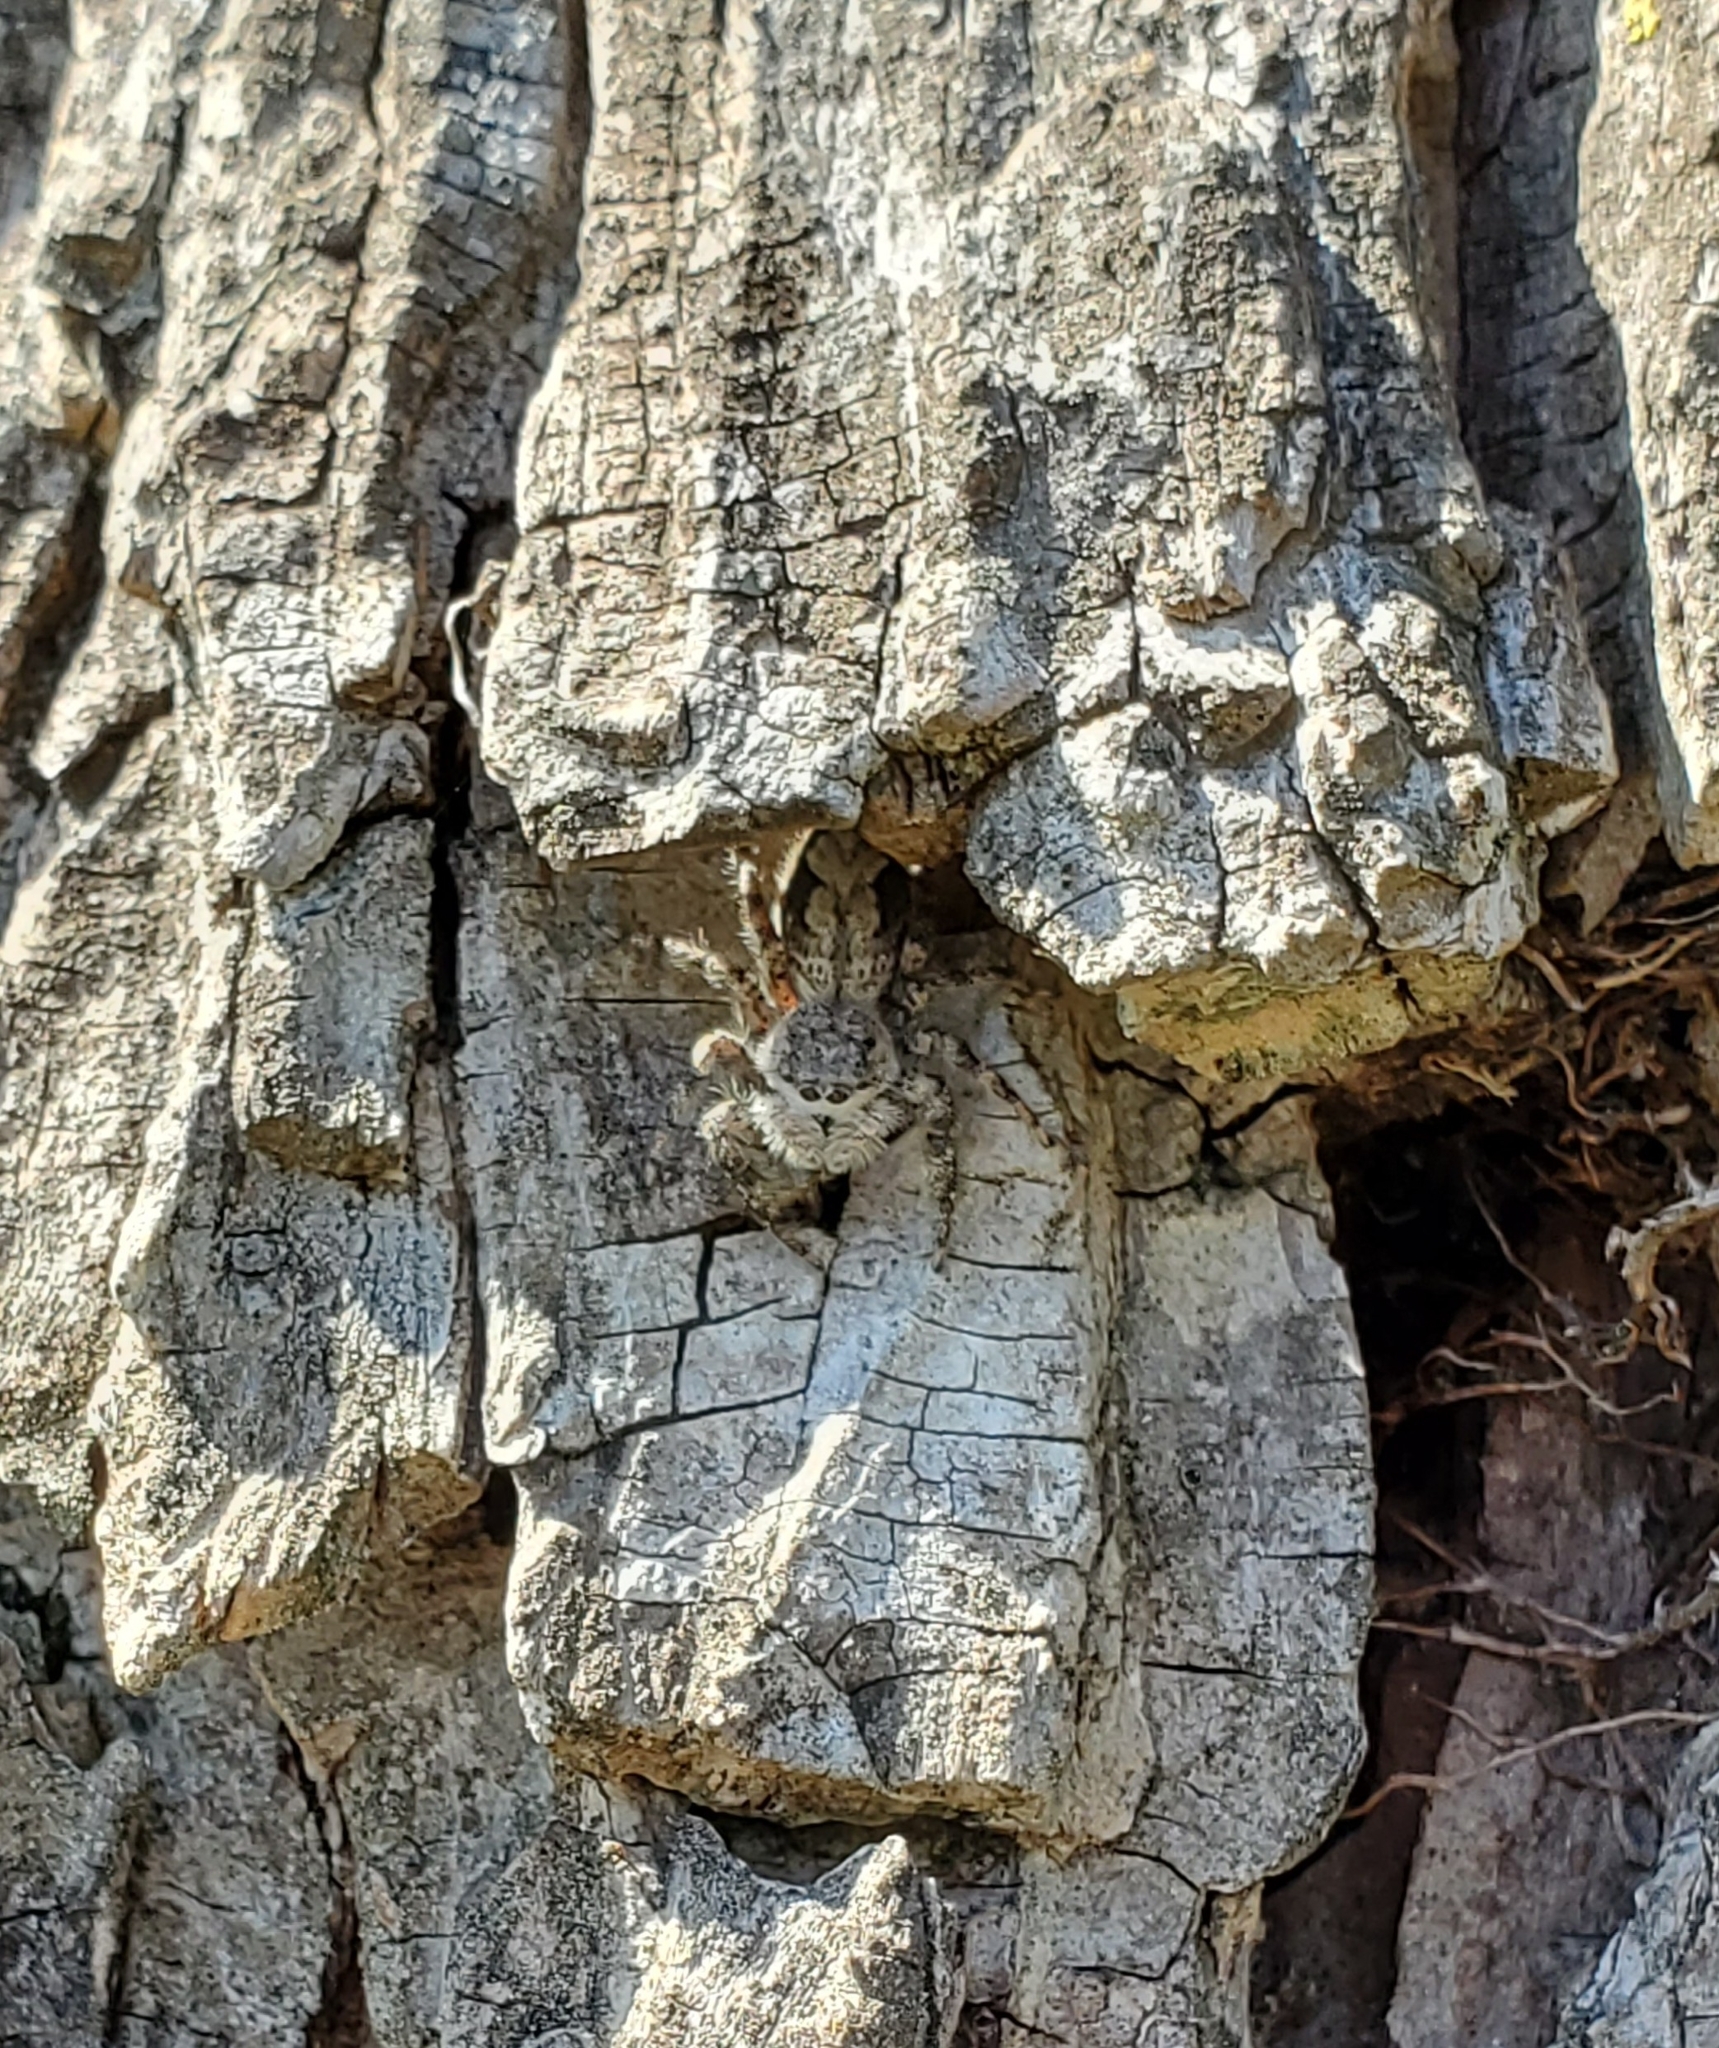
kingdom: Animalia
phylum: Arthropoda
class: Arachnida
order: Araneae
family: Salticidae
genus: Platycryptus
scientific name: Platycryptus undatus
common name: Tan jumping spider
